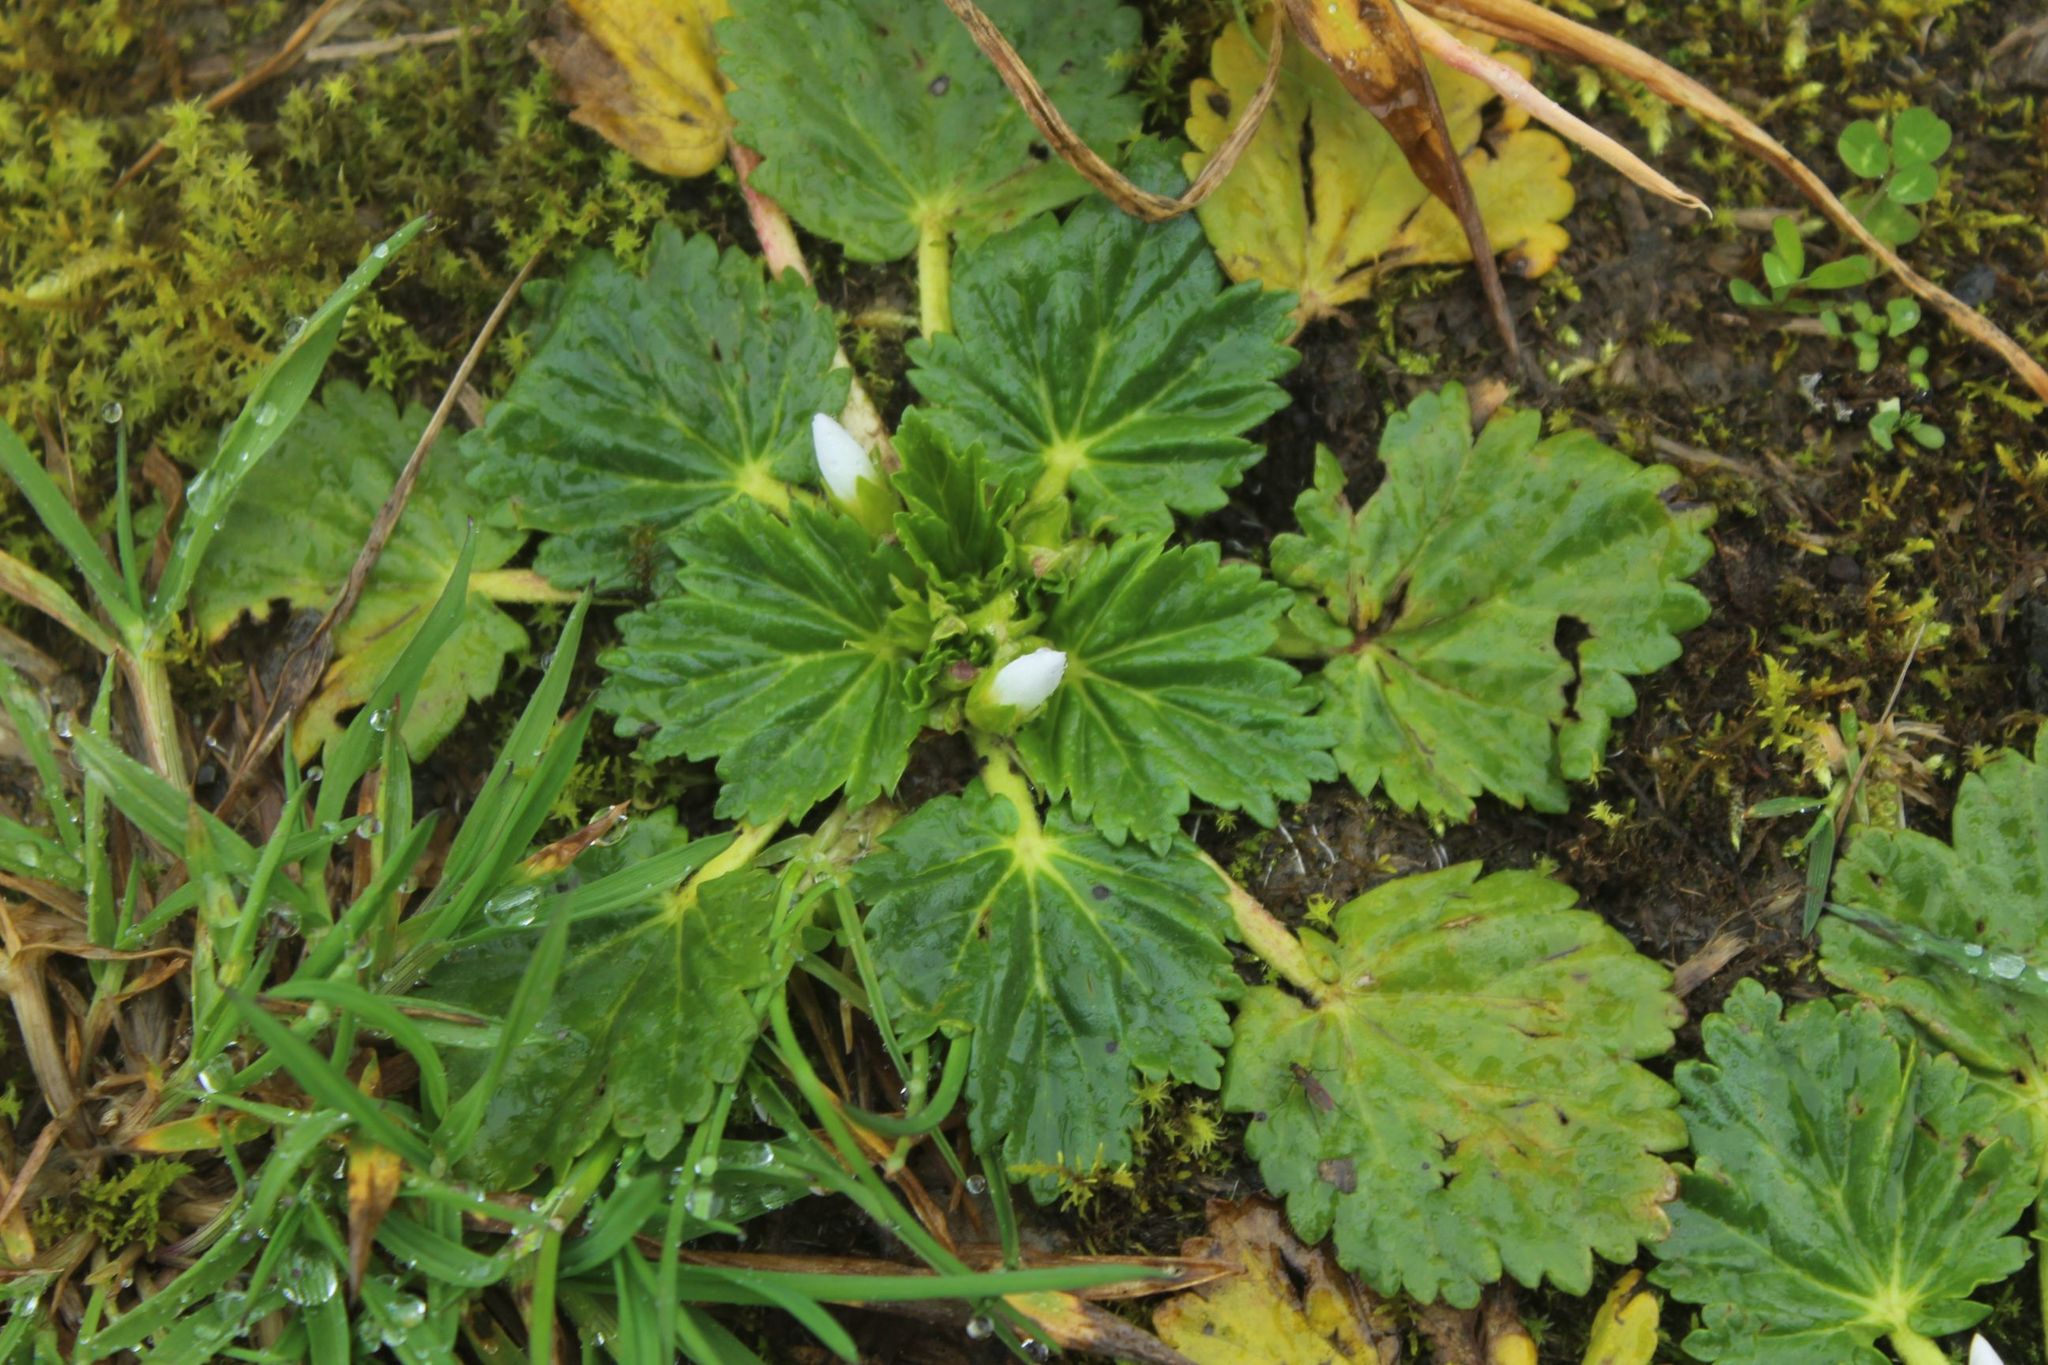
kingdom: Plantae
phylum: Tracheophyta
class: Magnoliopsida
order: Malvales
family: Malvaceae
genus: Acaulimalva
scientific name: Acaulimalva purdiaei
